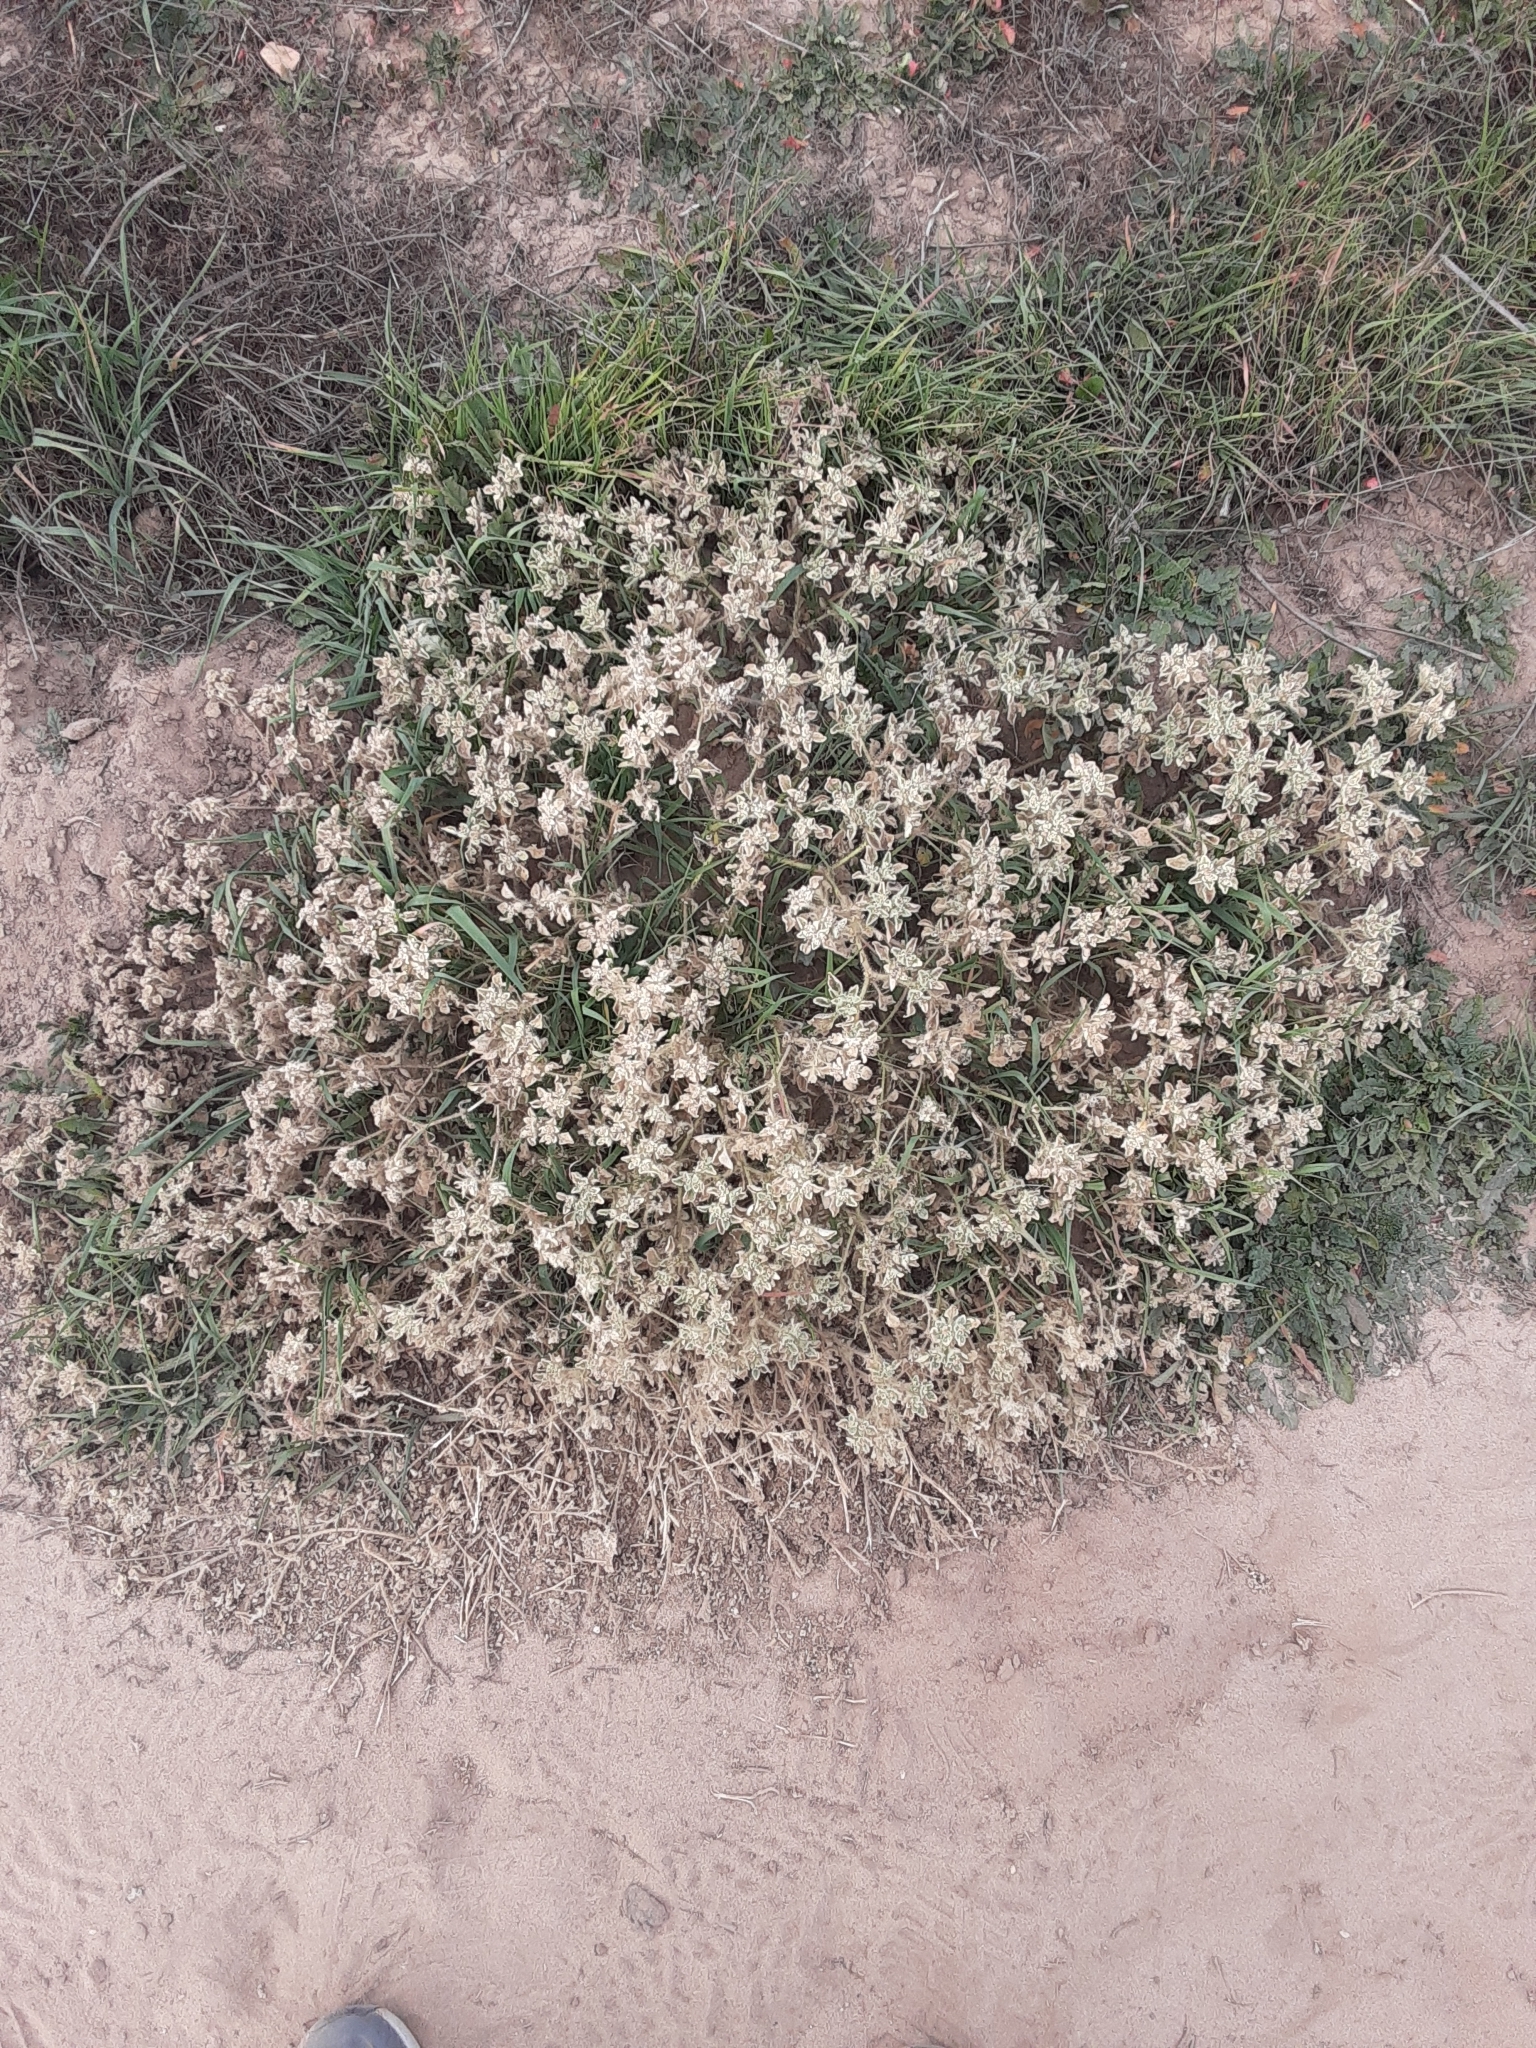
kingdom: Plantae
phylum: Tracheophyta
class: Magnoliopsida
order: Malpighiales
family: Euphorbiaceae
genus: Croton
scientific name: Croton setiger
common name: Dove weed
